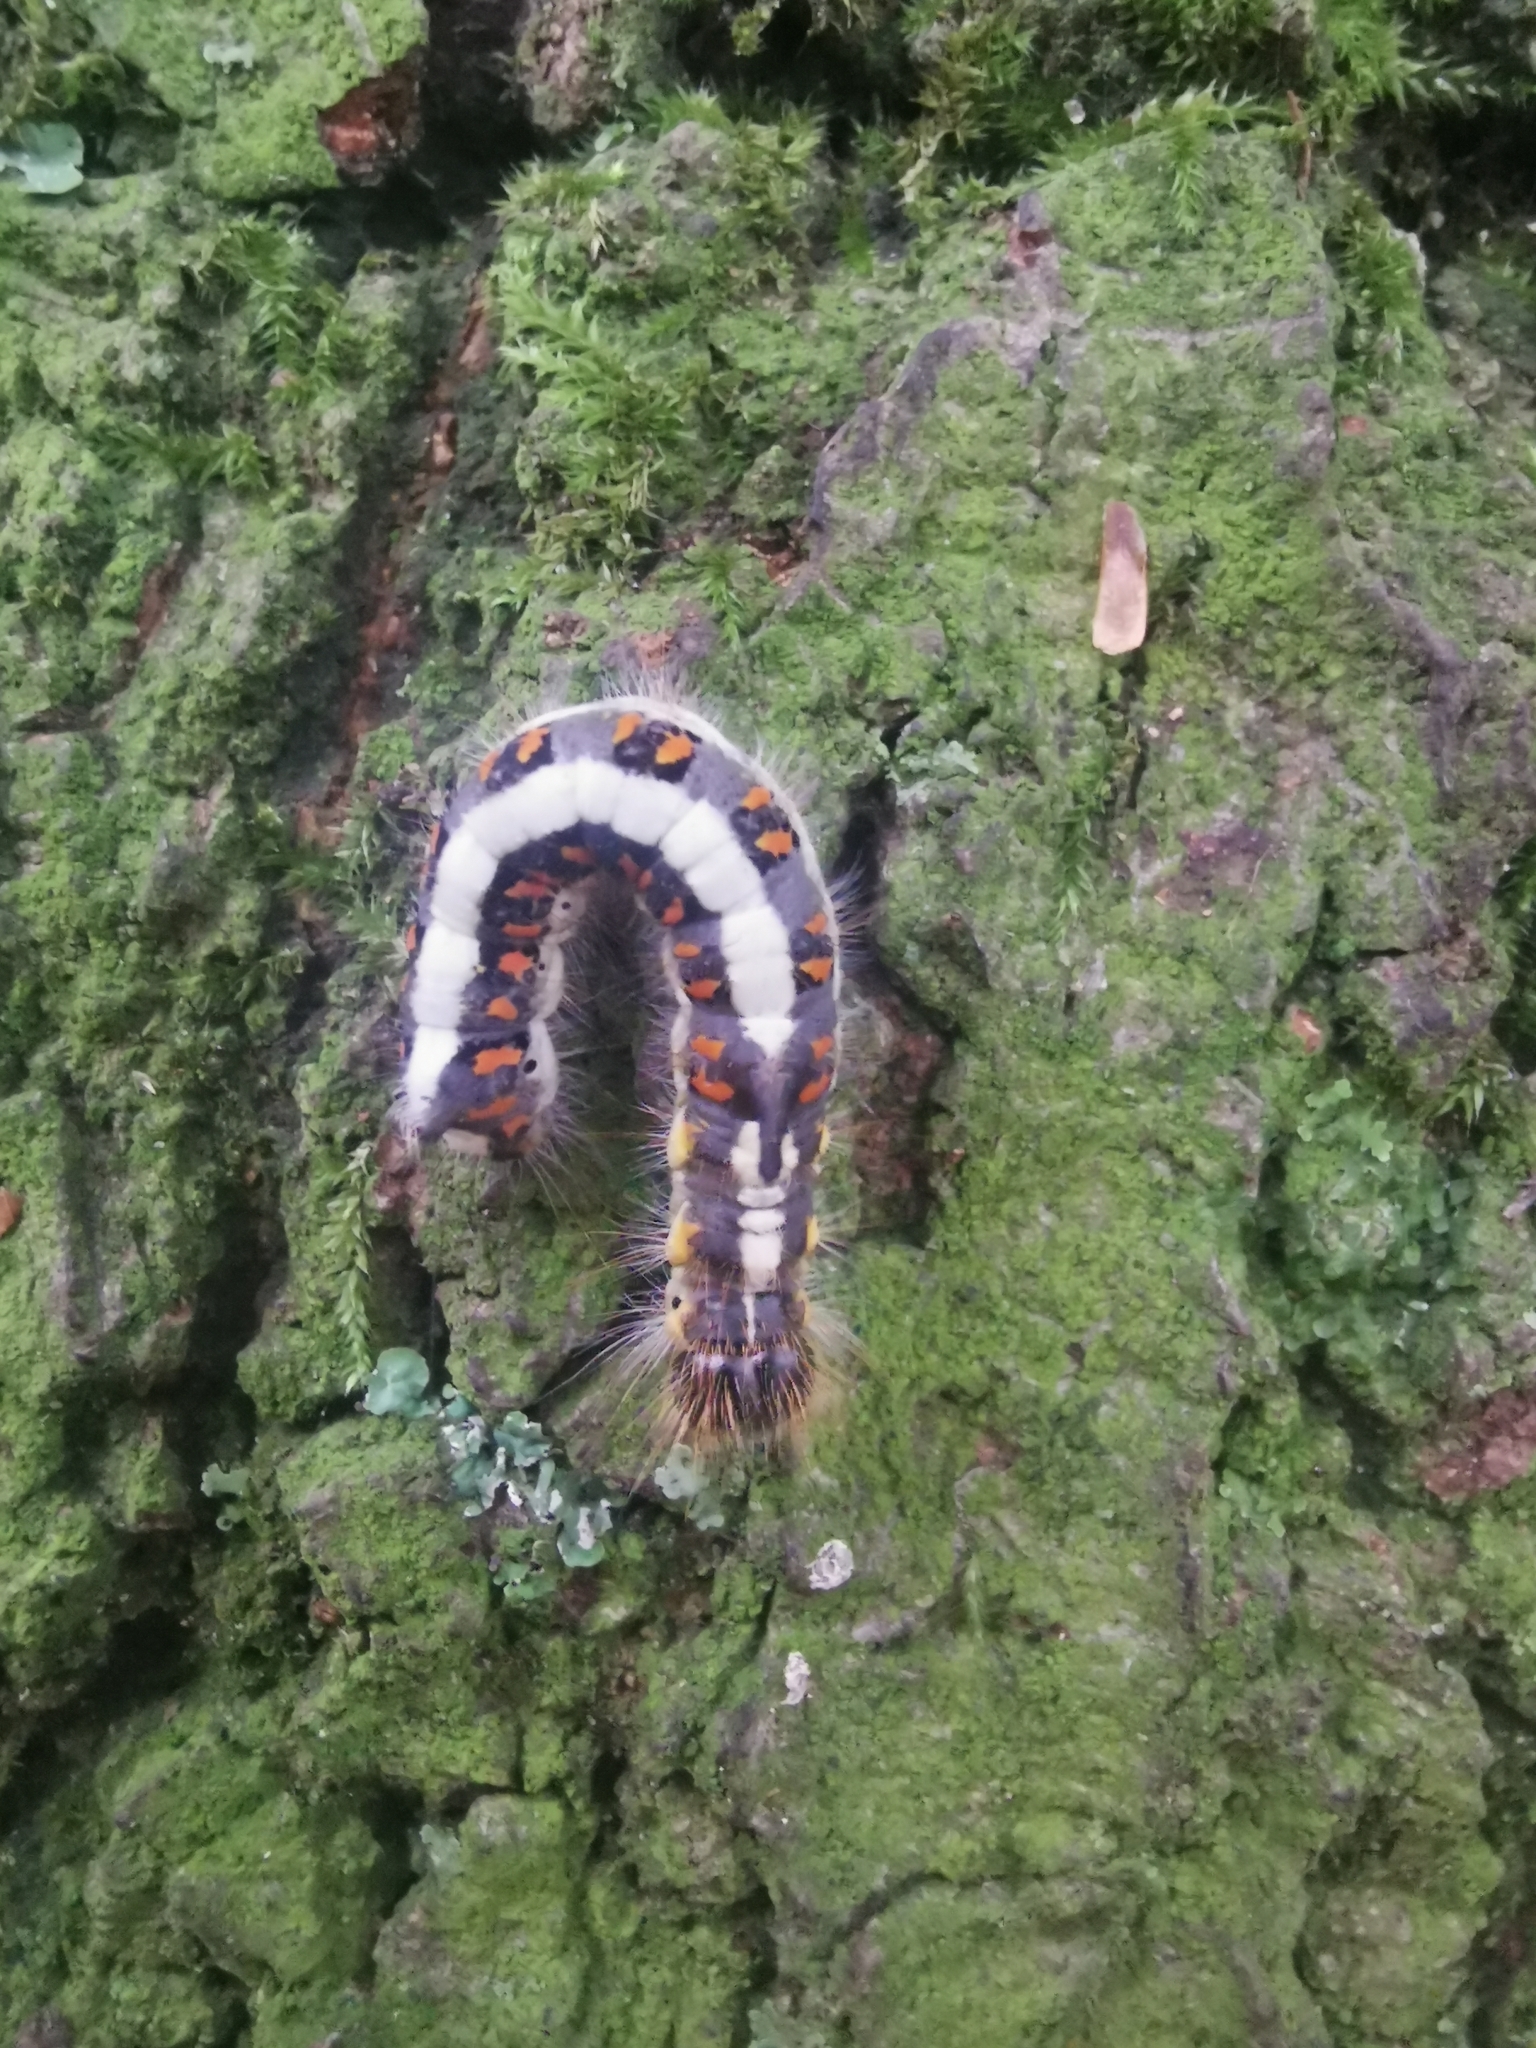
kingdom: Animalia
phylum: Arthropoda
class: Insecta
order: Lepidoptera
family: Noctuidae
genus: Acronicta
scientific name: Acronicta psi
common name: Grey dagger
